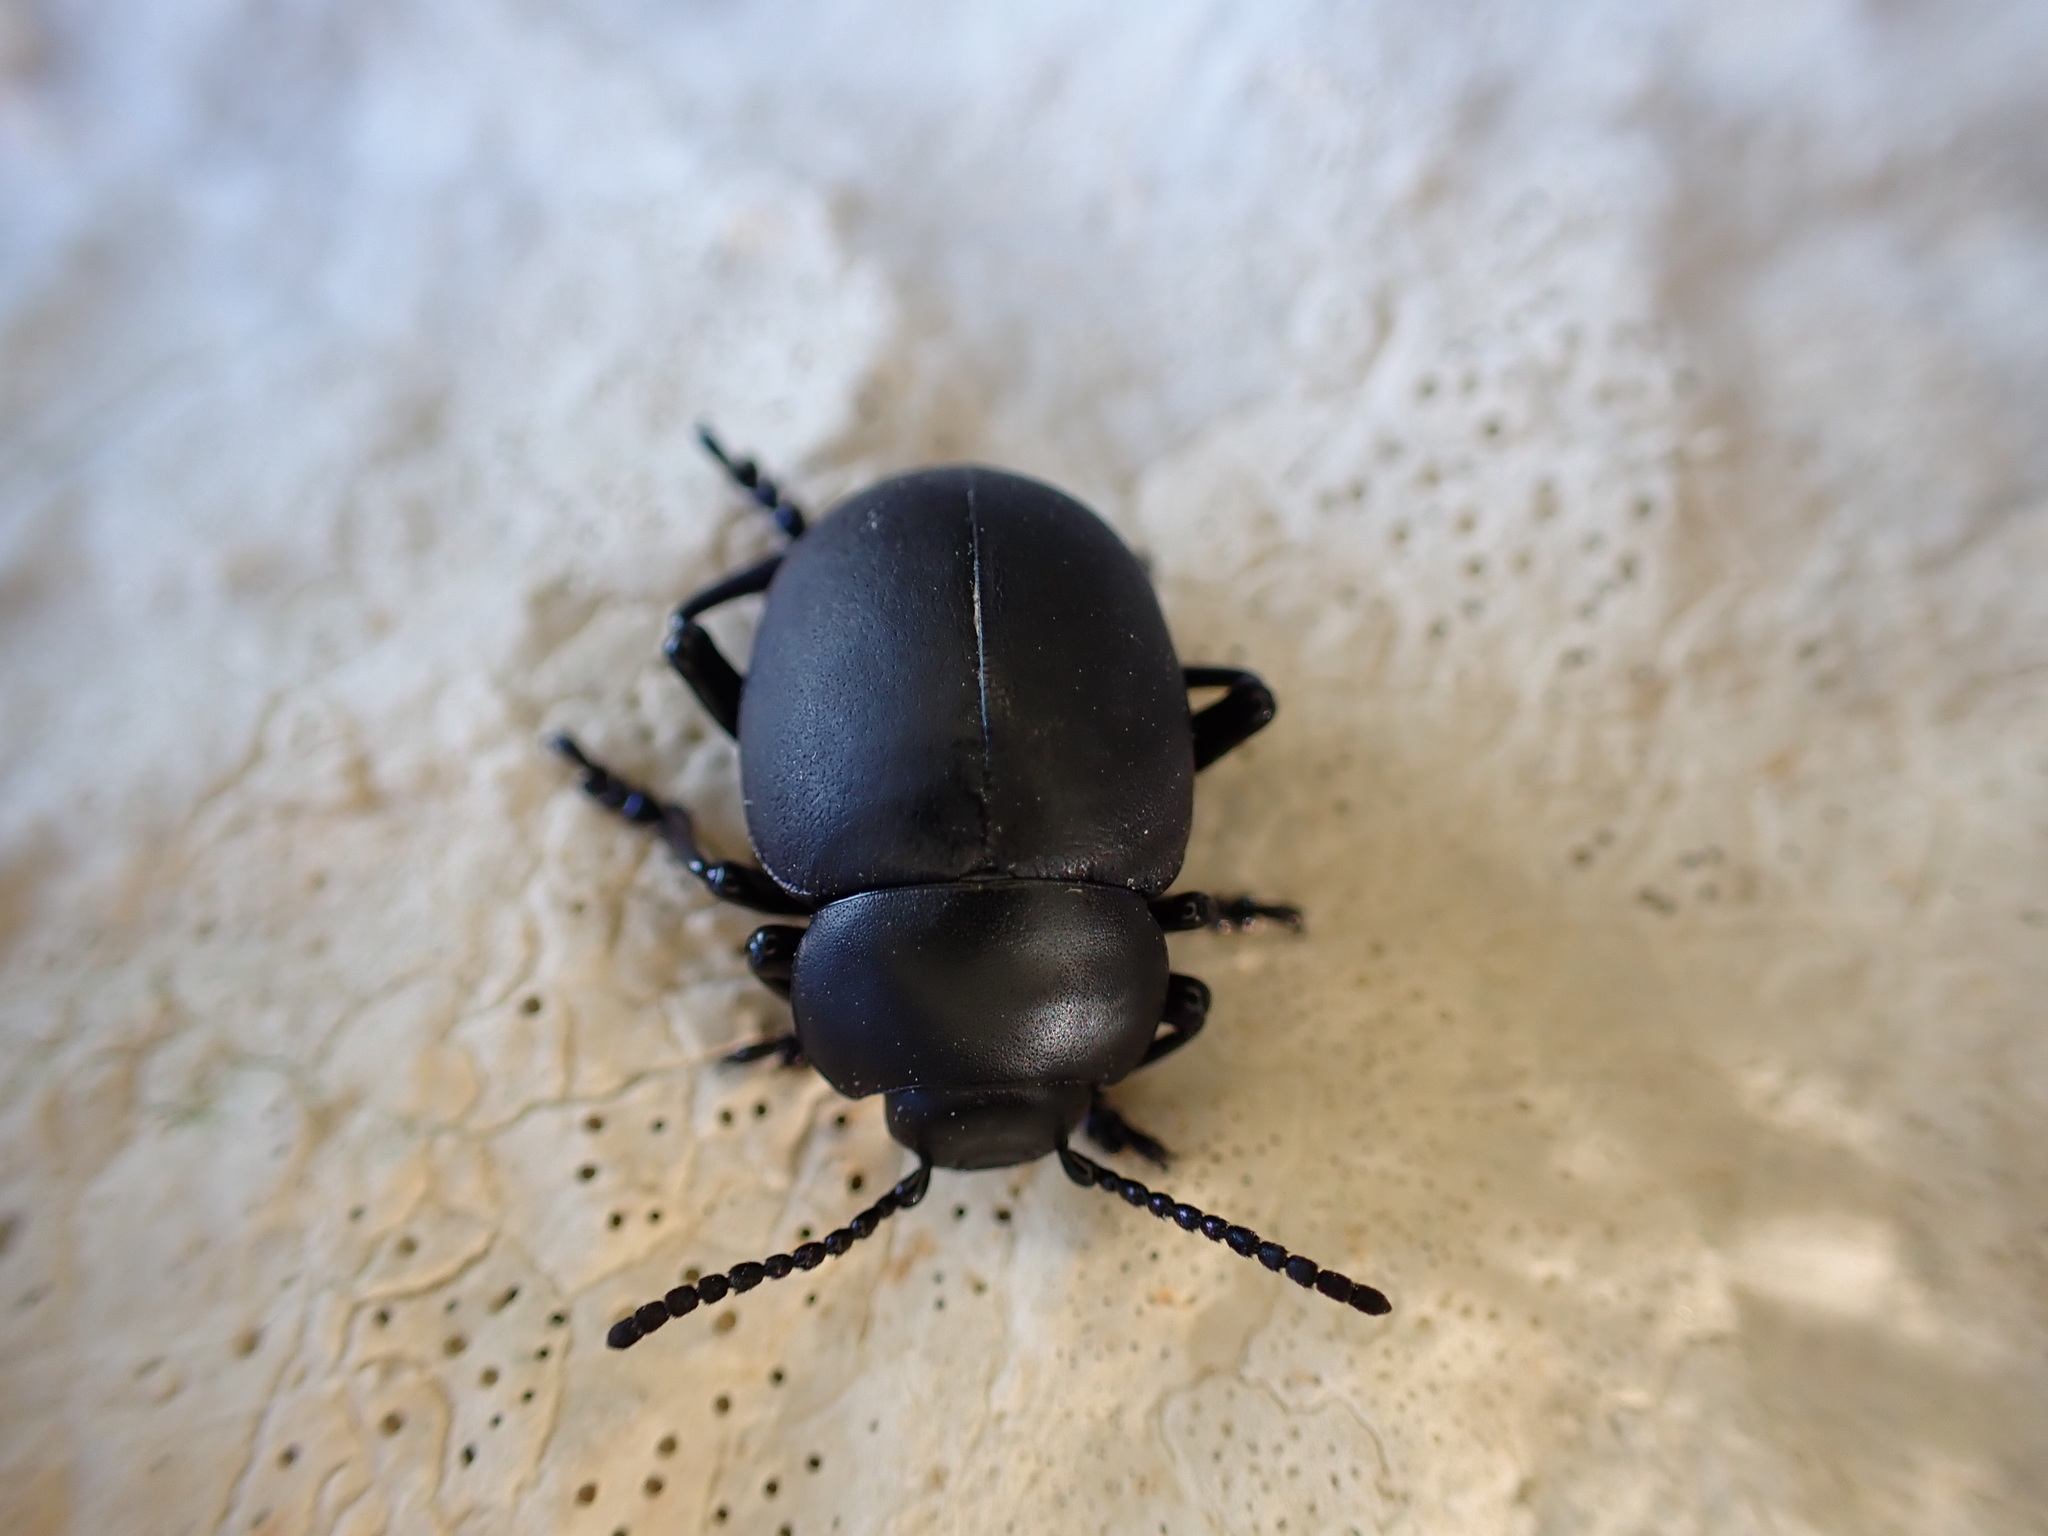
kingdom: Animalia
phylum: Arthropoda
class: Insecta
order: Coleoptera
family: Chrysomelidae
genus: Timarcha
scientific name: Timarcha nicaeensis
